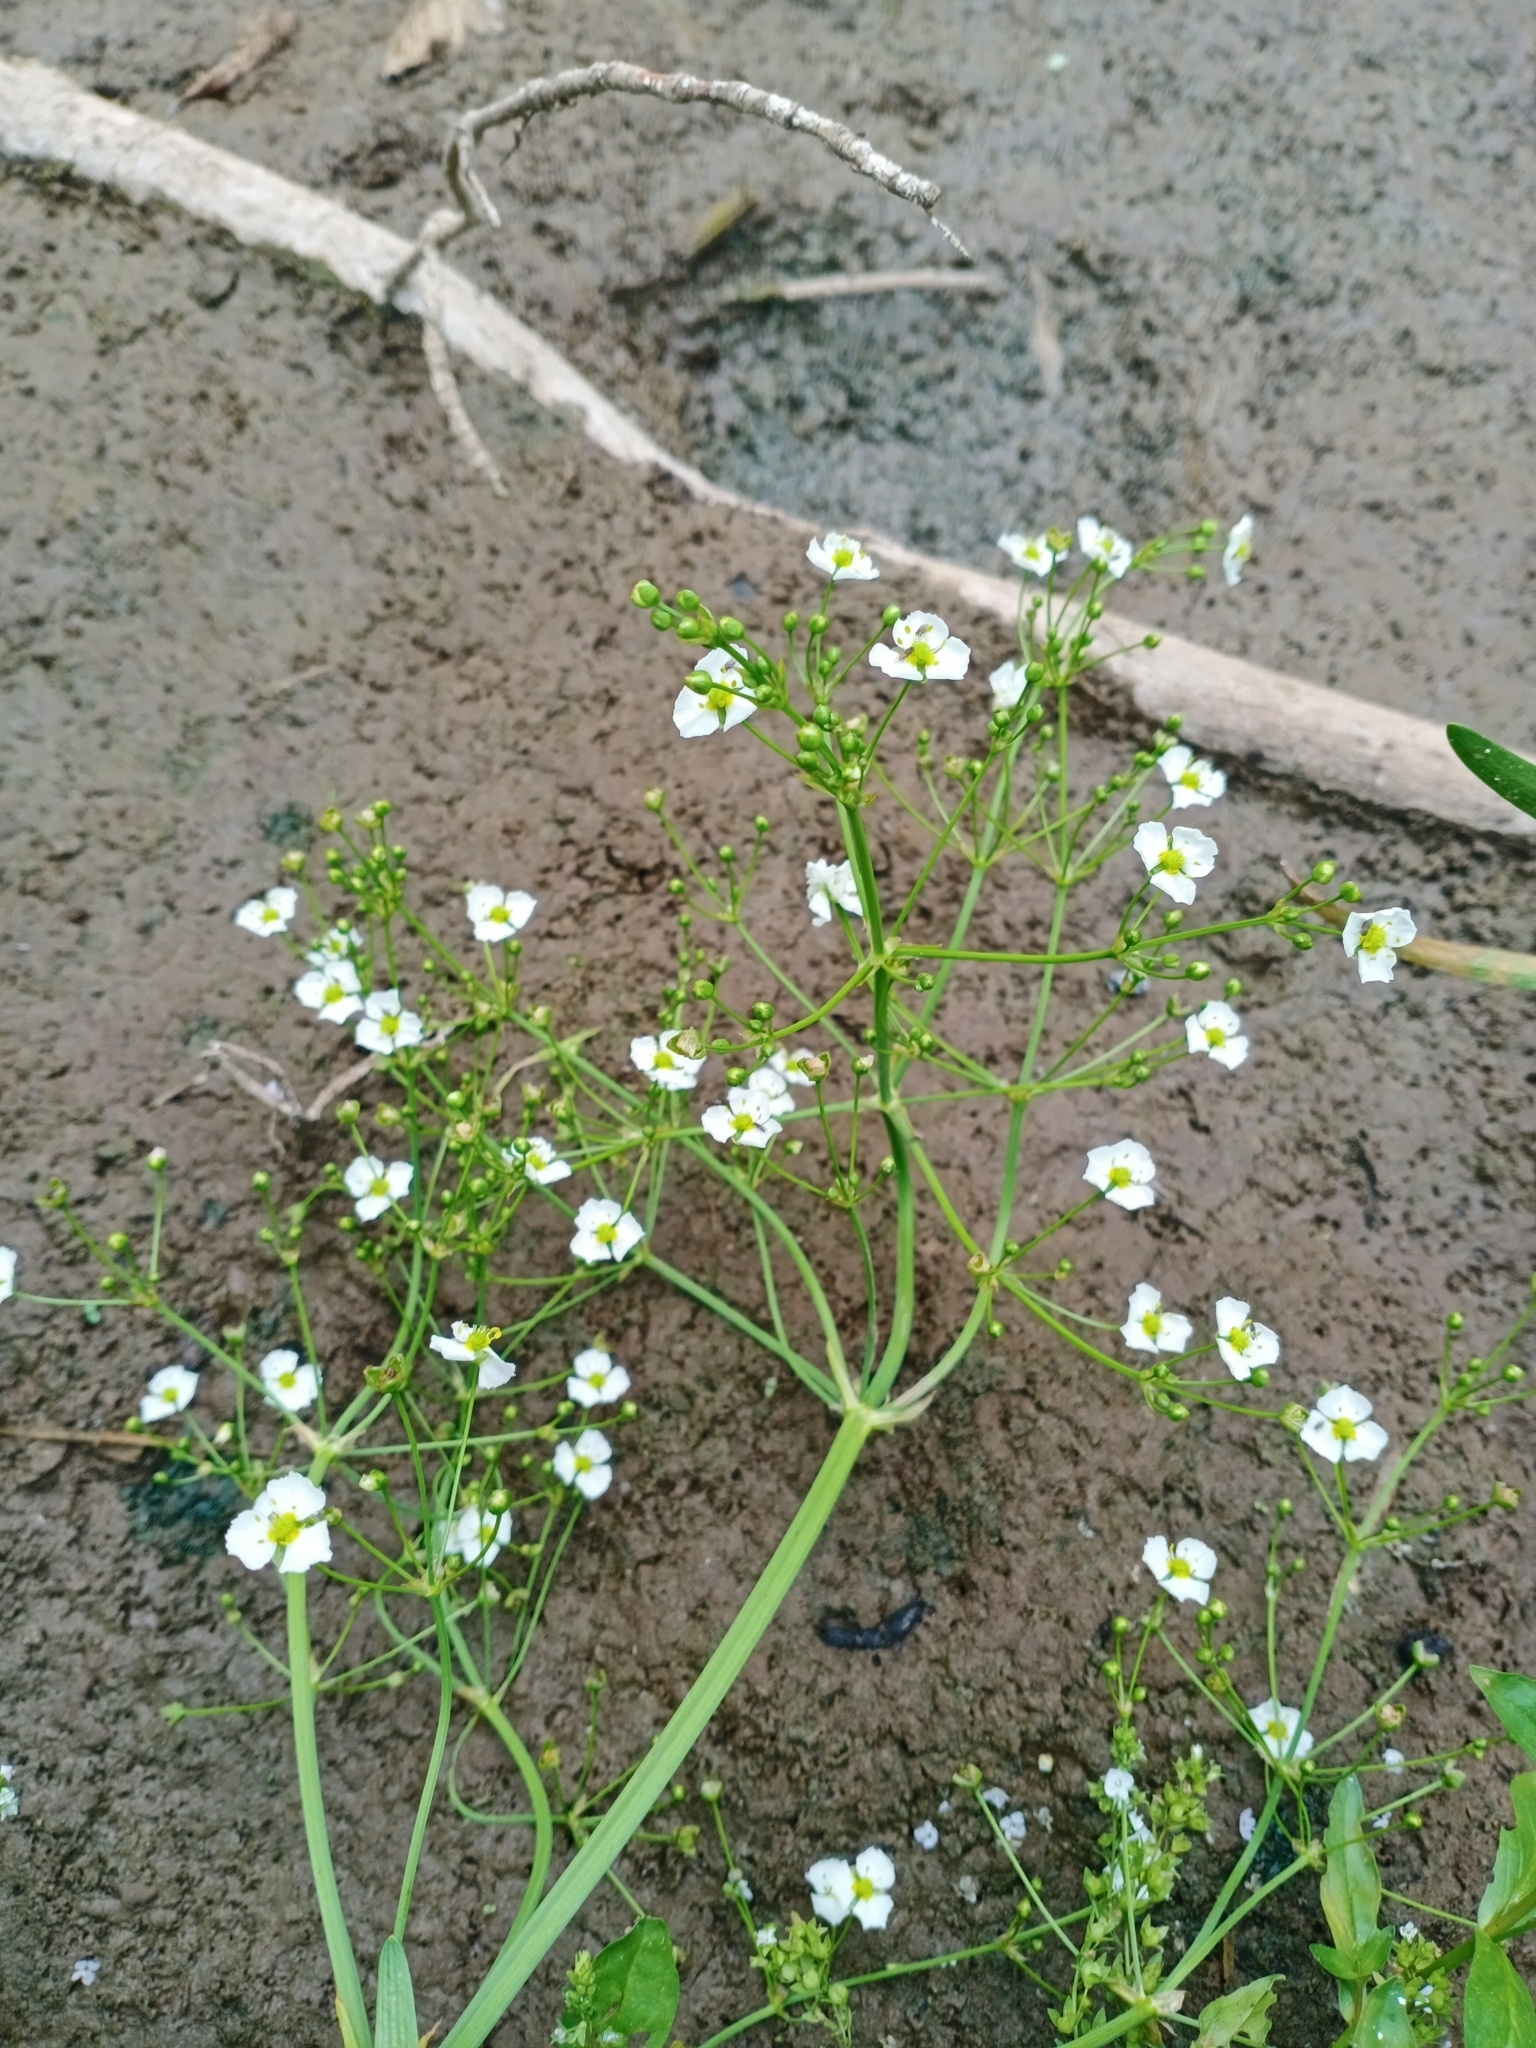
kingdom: Plantae
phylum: Tracheophyta
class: Liliopsida
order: Alismatales
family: Alismataceae
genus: Alisma
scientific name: Alisma plantago-aquatica
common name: Water-plantain
